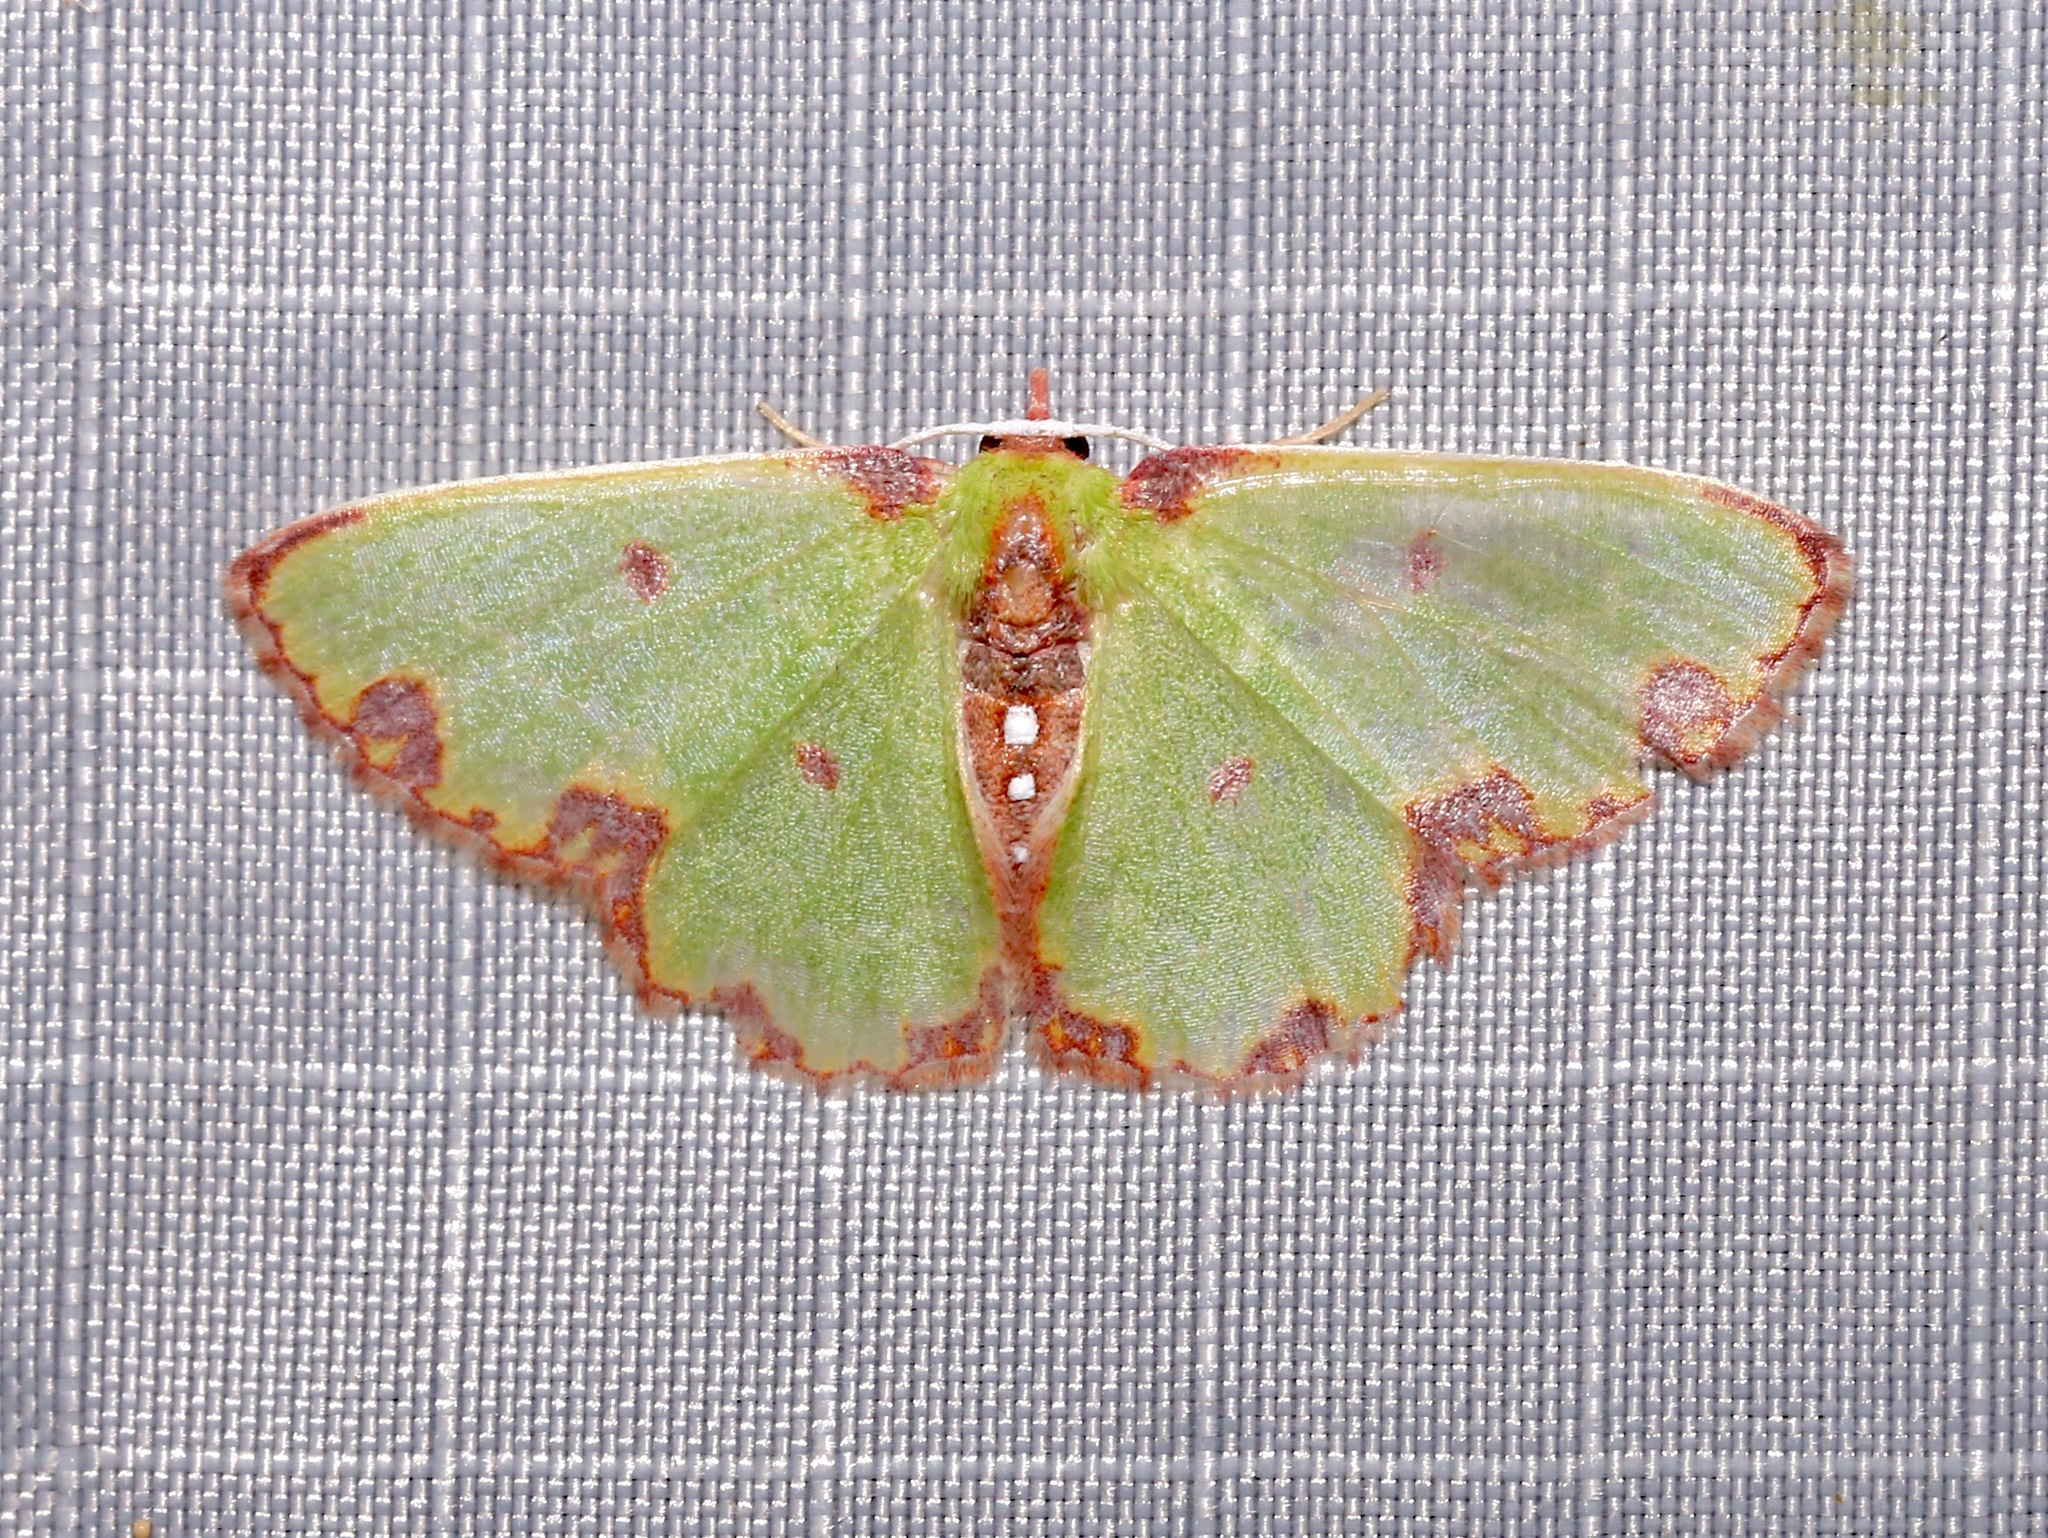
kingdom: Animalia
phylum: Arthropoda
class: Insecta
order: Lepidoptera
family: Geometridae
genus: Synchlora
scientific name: Synchlora xysteraria
